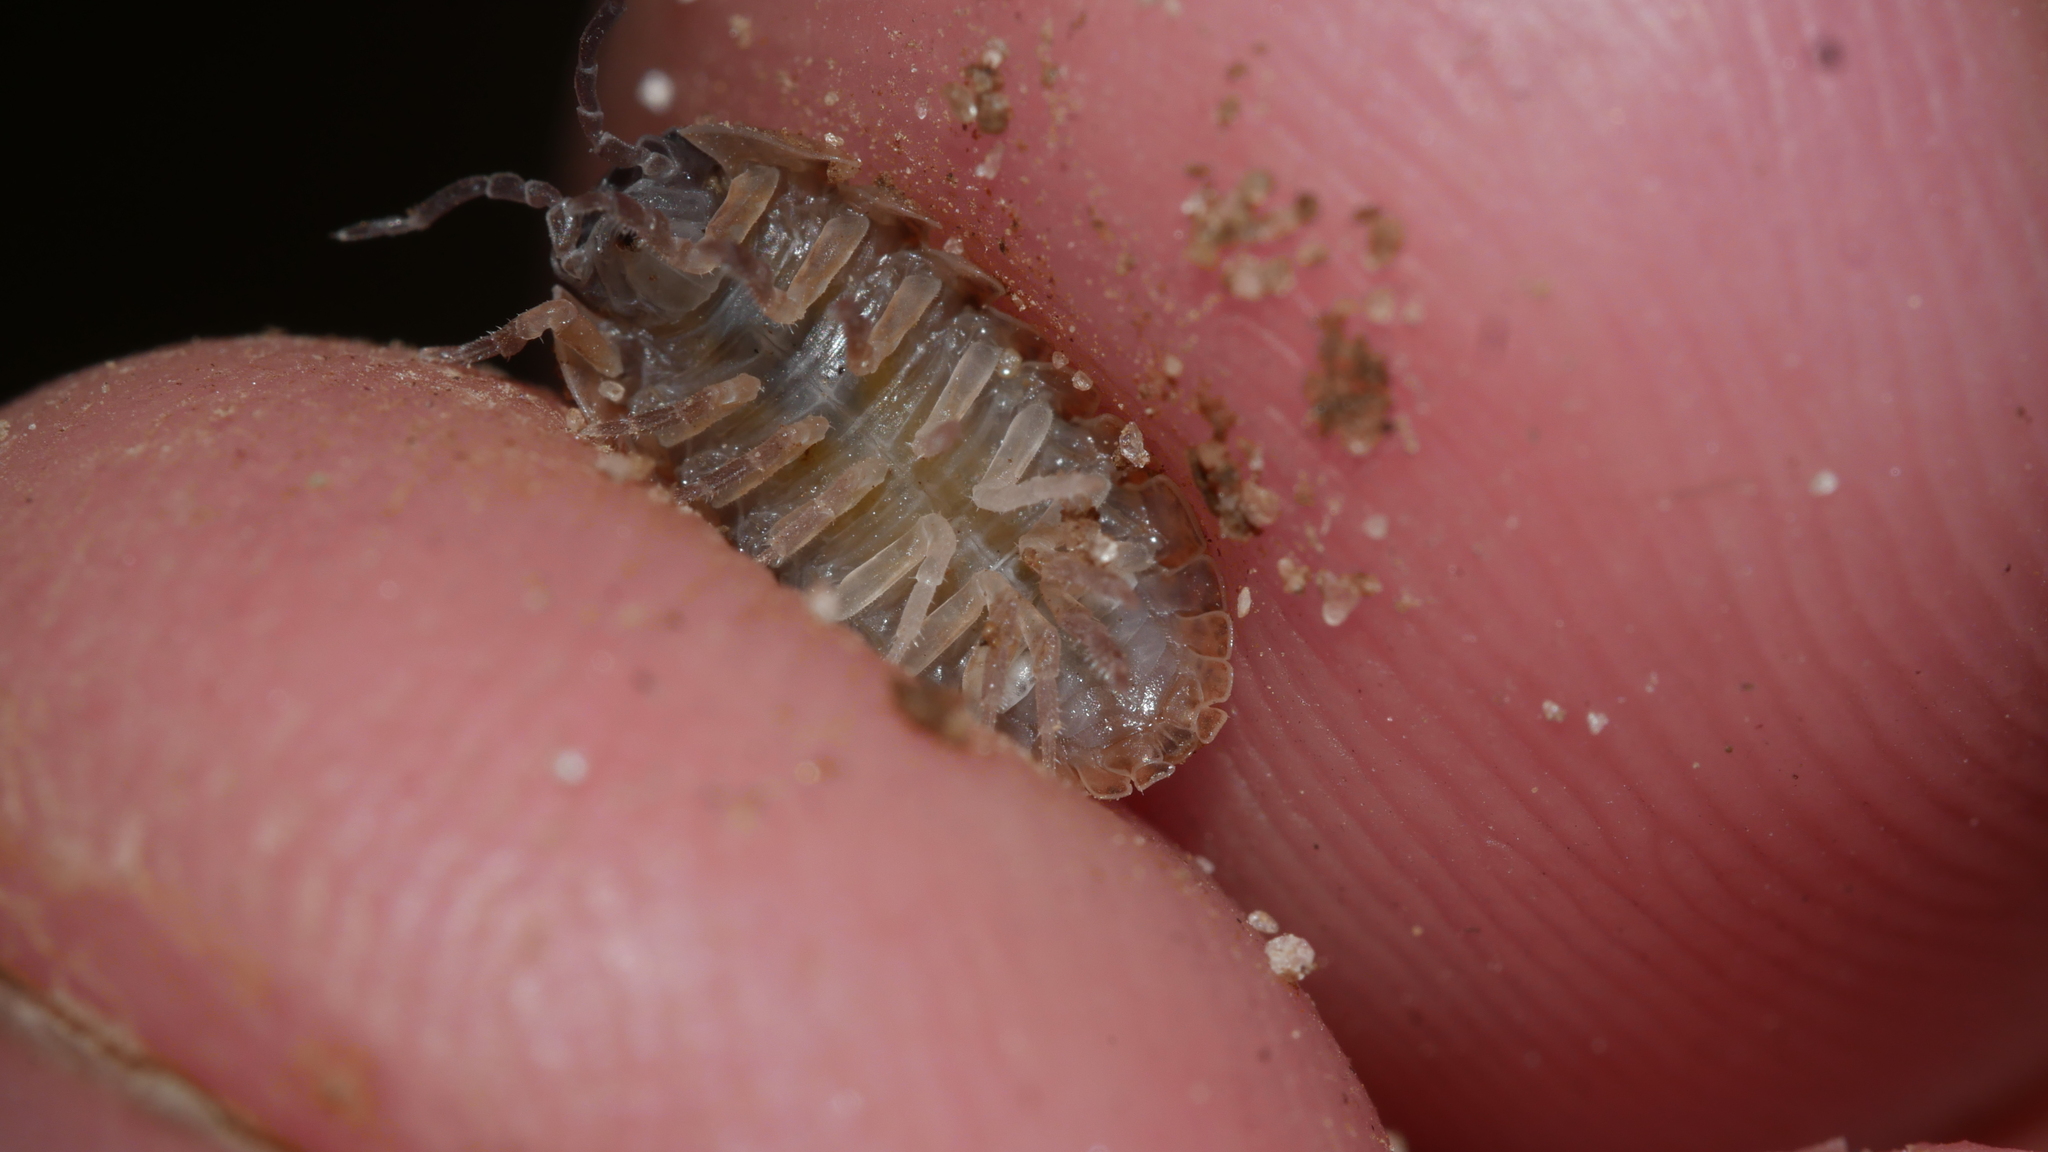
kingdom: Animalia
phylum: Arthropoda
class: Malacostraca
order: Isopoda
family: Armadillidiidae
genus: Armadillidium
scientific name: Armadillidium vulgare
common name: Common pill woodlouse
